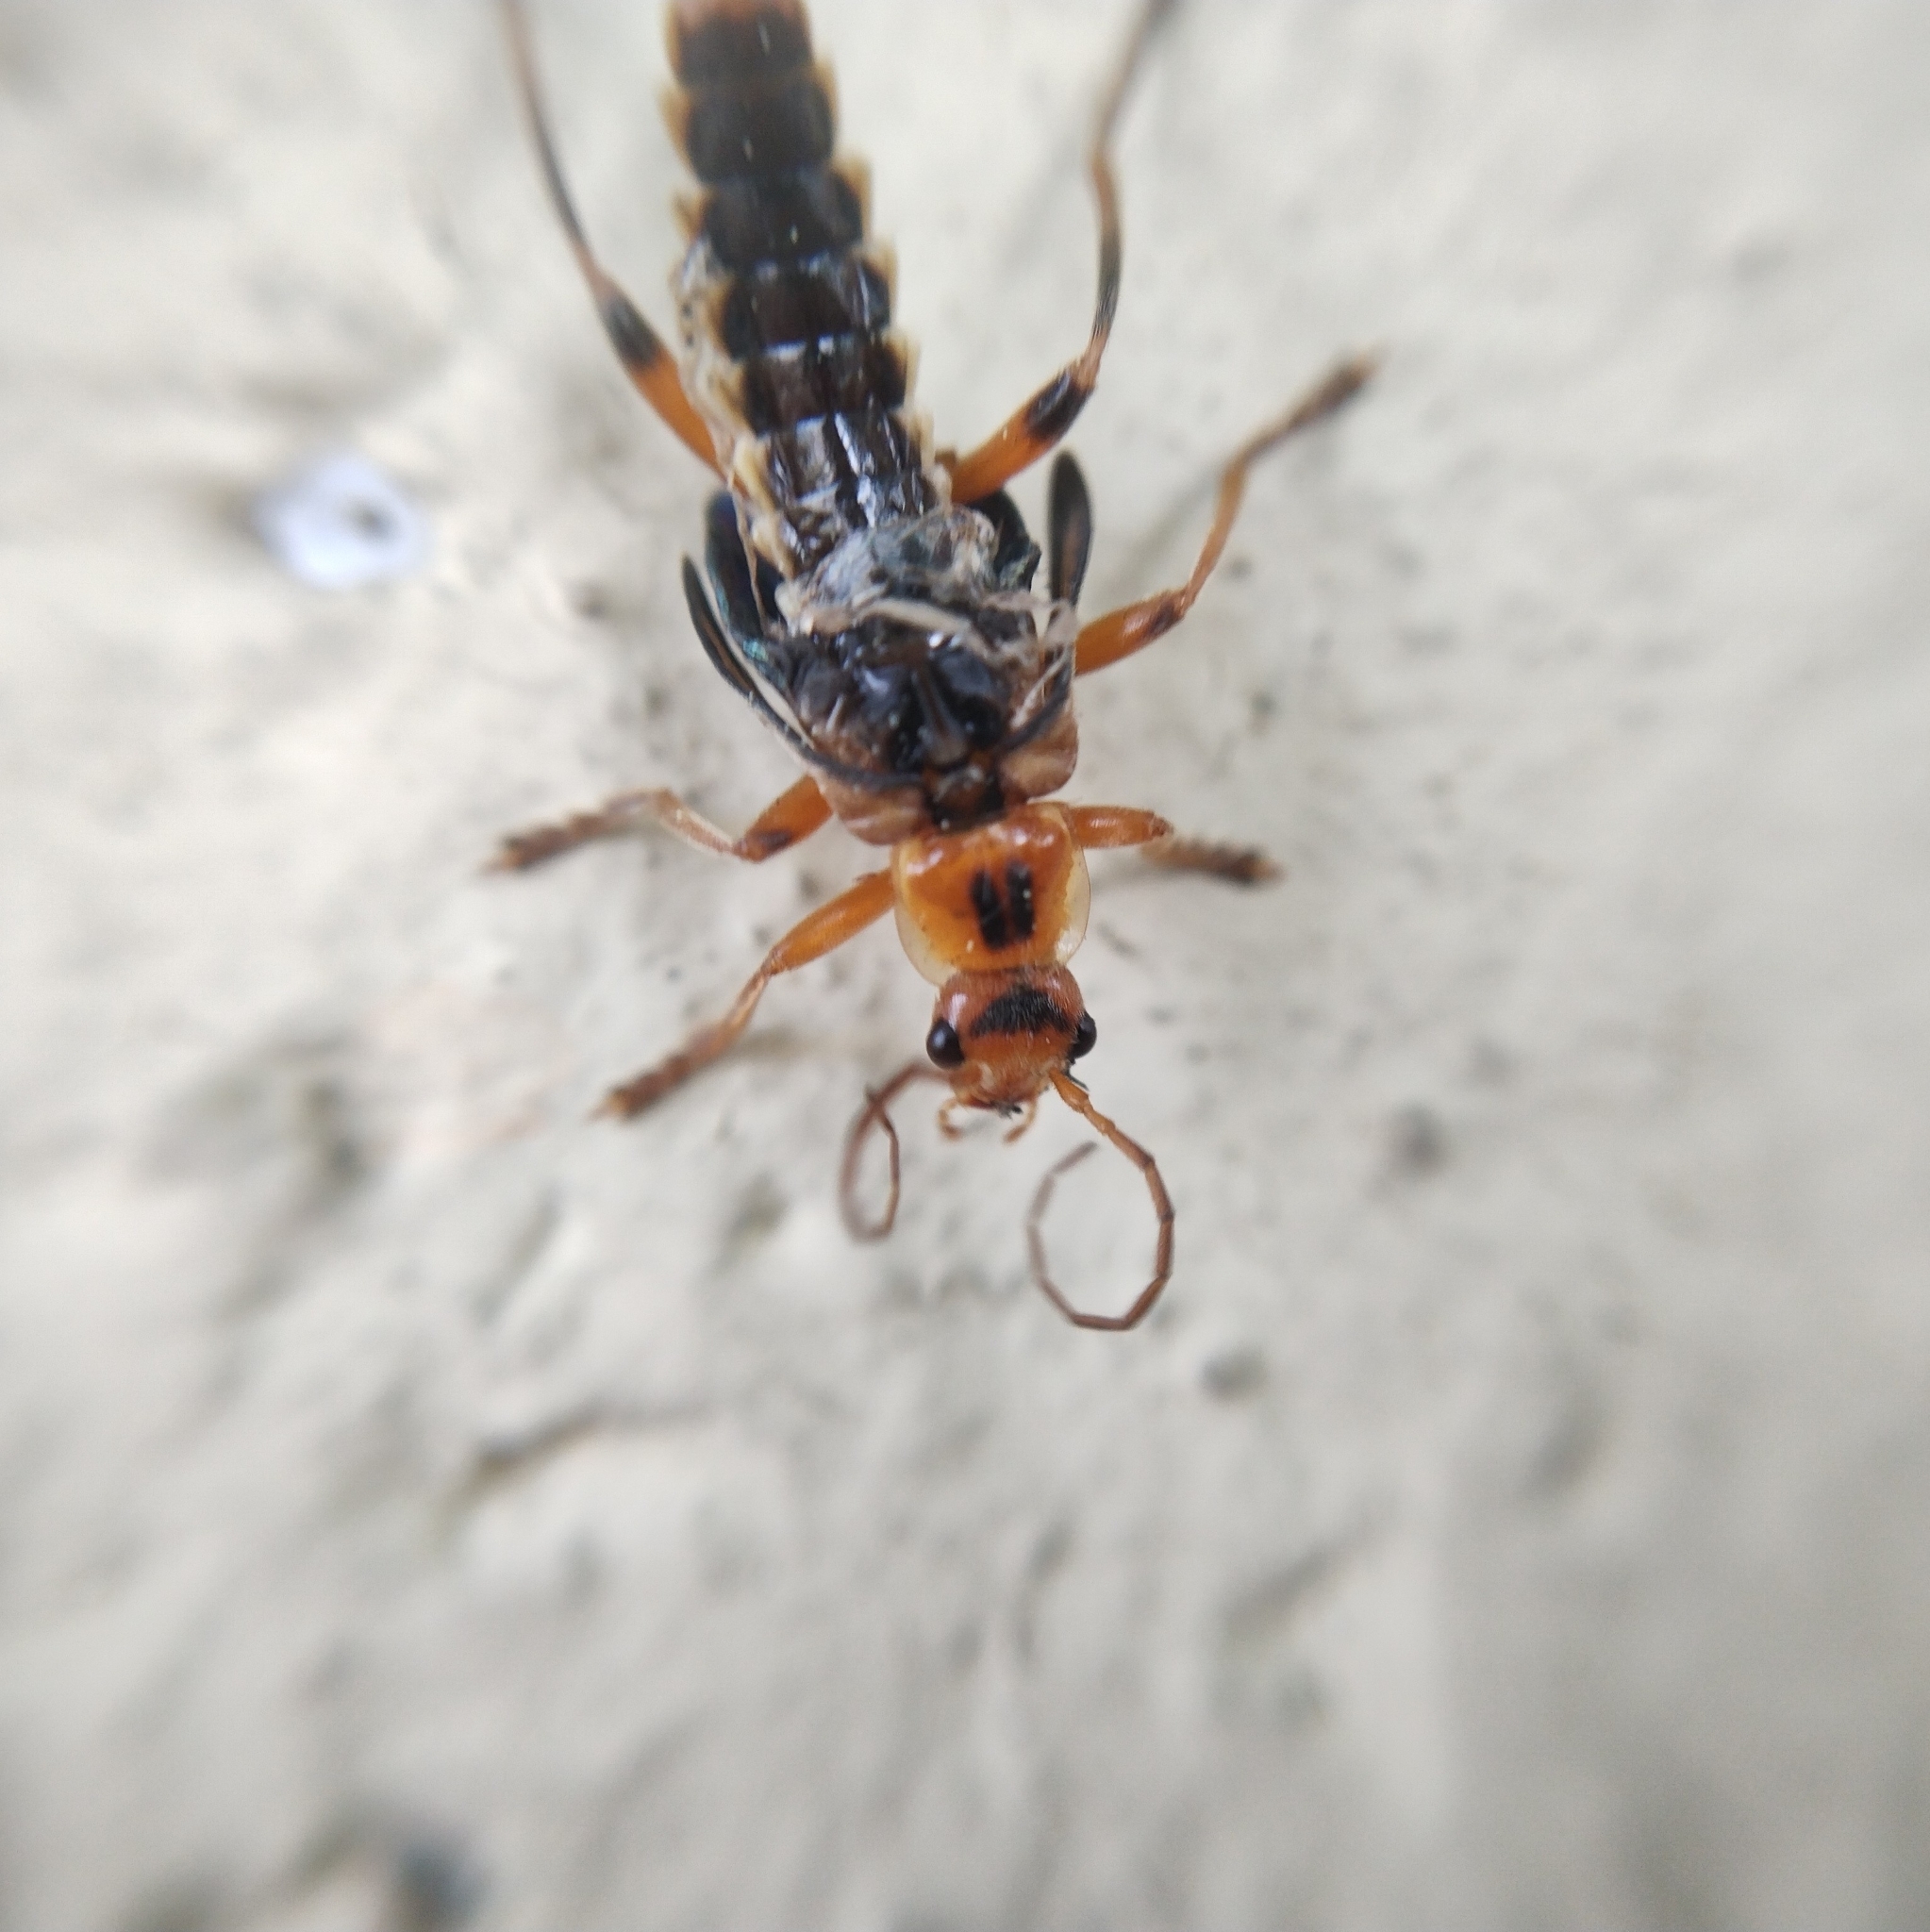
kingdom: Animalia
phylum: Arthropoda
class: Insecta
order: Coleoptera
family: Cantharidae
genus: Metacantharis
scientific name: Metacantharis discoidea
